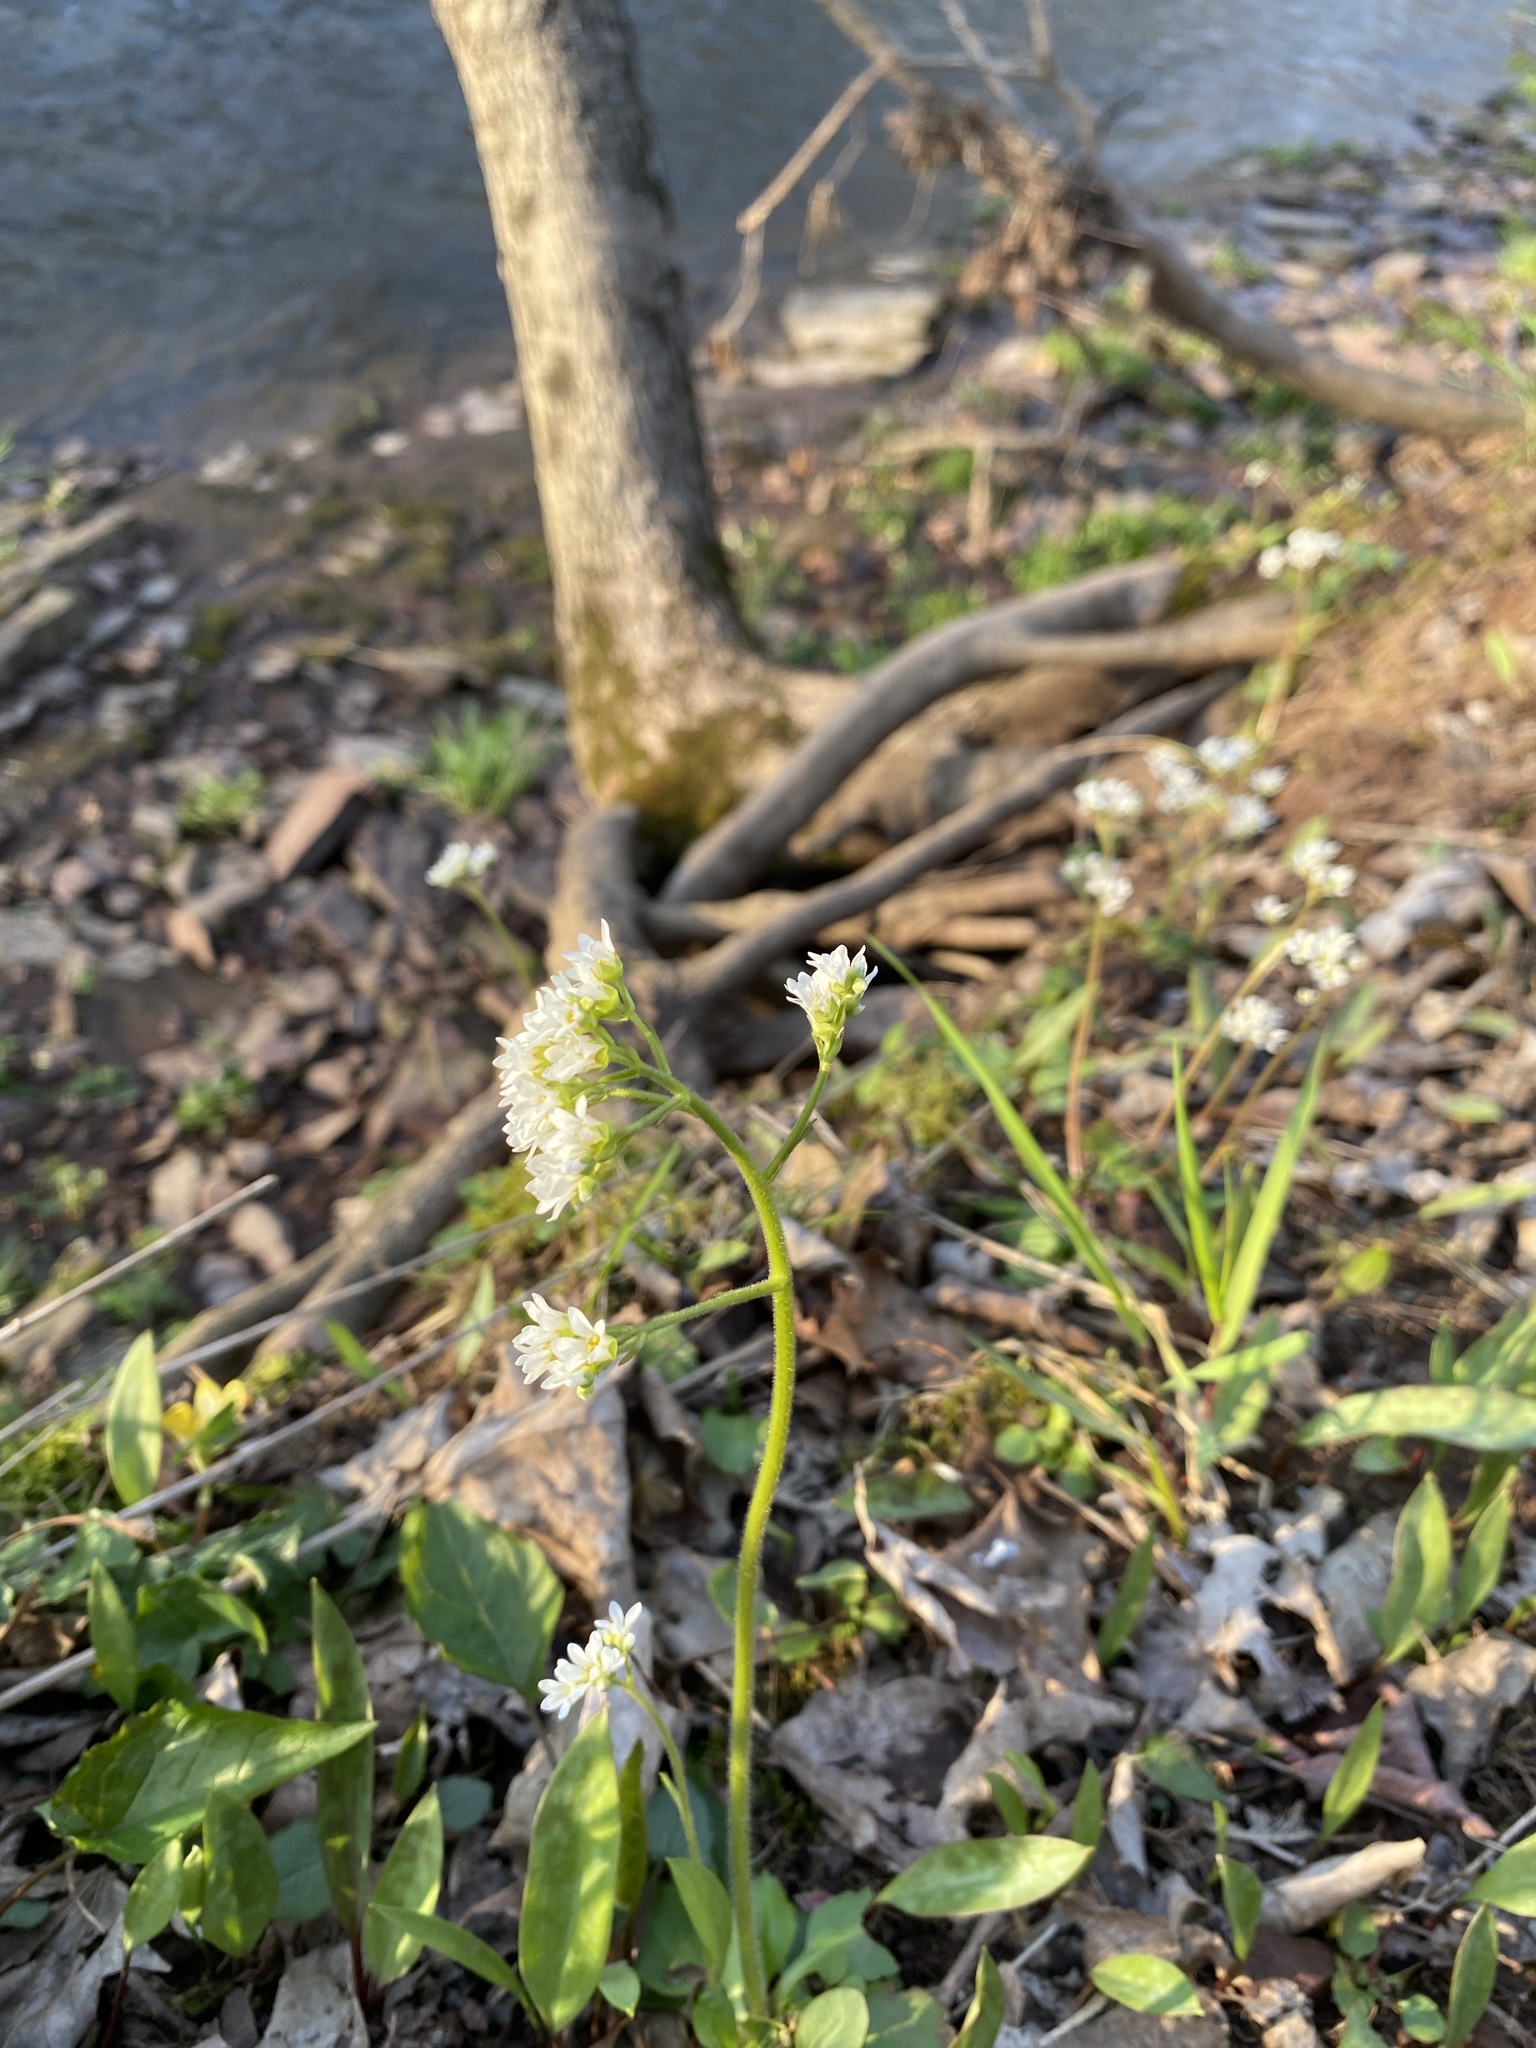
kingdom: Plantae
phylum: Tracheophyta
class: Magnoliopsida
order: Saxifragales
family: Saxifragaceae
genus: Micranthes
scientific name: Micranthes virginiensis
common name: Early saxifrage
